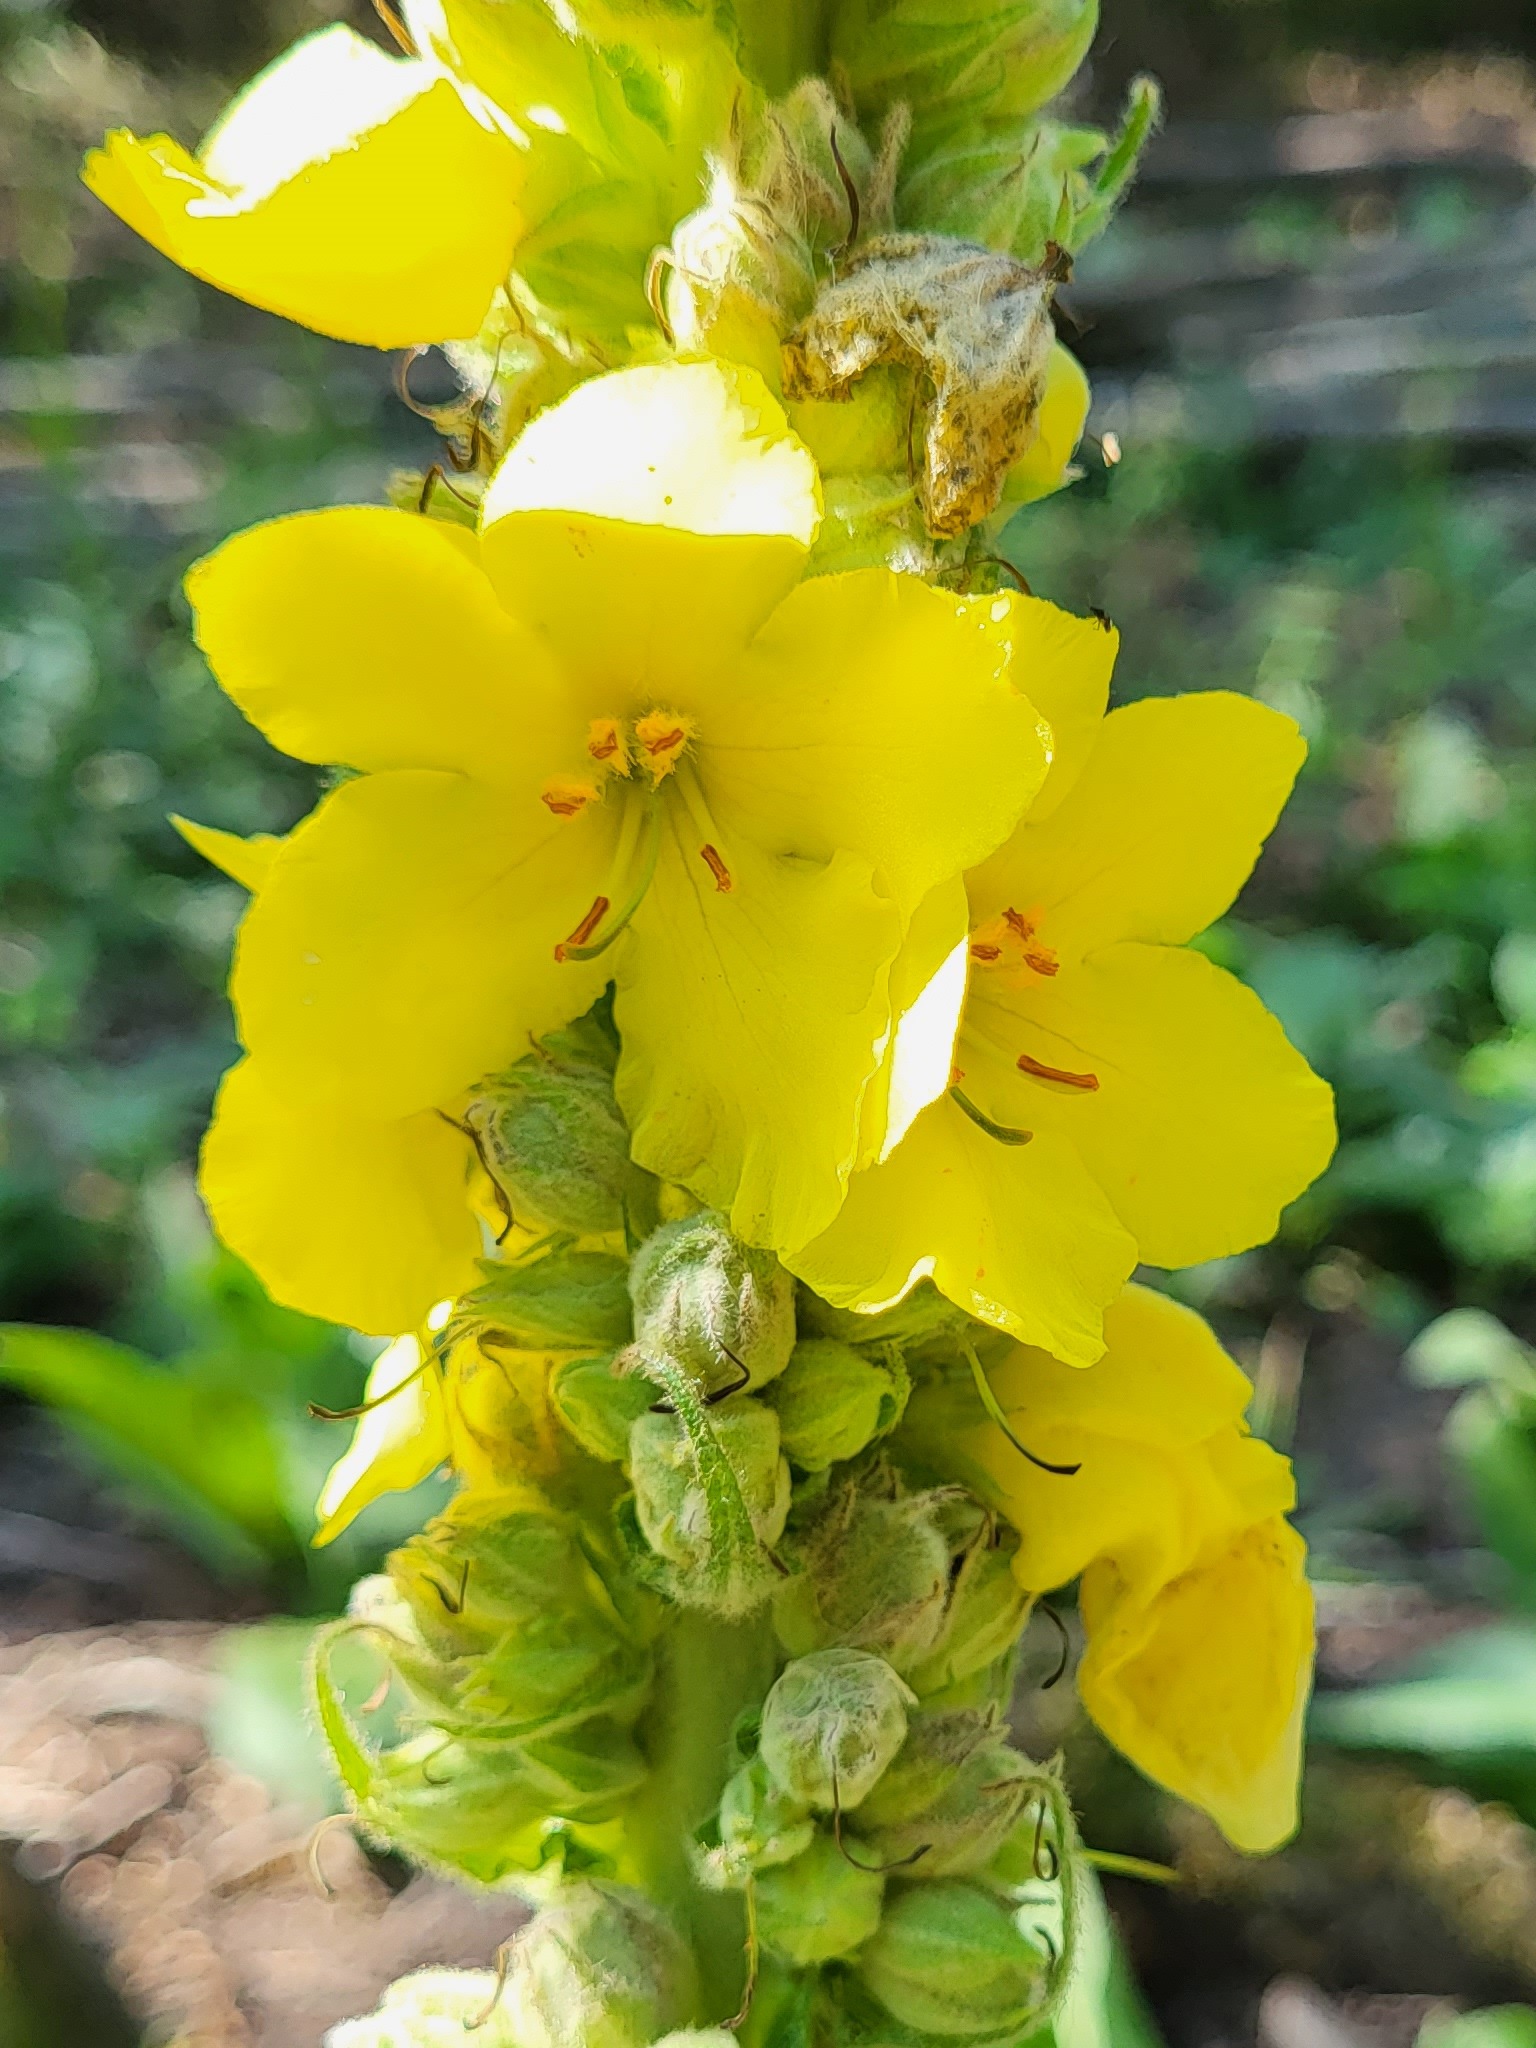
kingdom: Plantae
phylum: Tracheophyta
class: Magnoliopsida
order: Lamiales
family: Scrophulariaceae
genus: Verbascum
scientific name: Verbascum densiflorum
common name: Dense-flowered mullein
